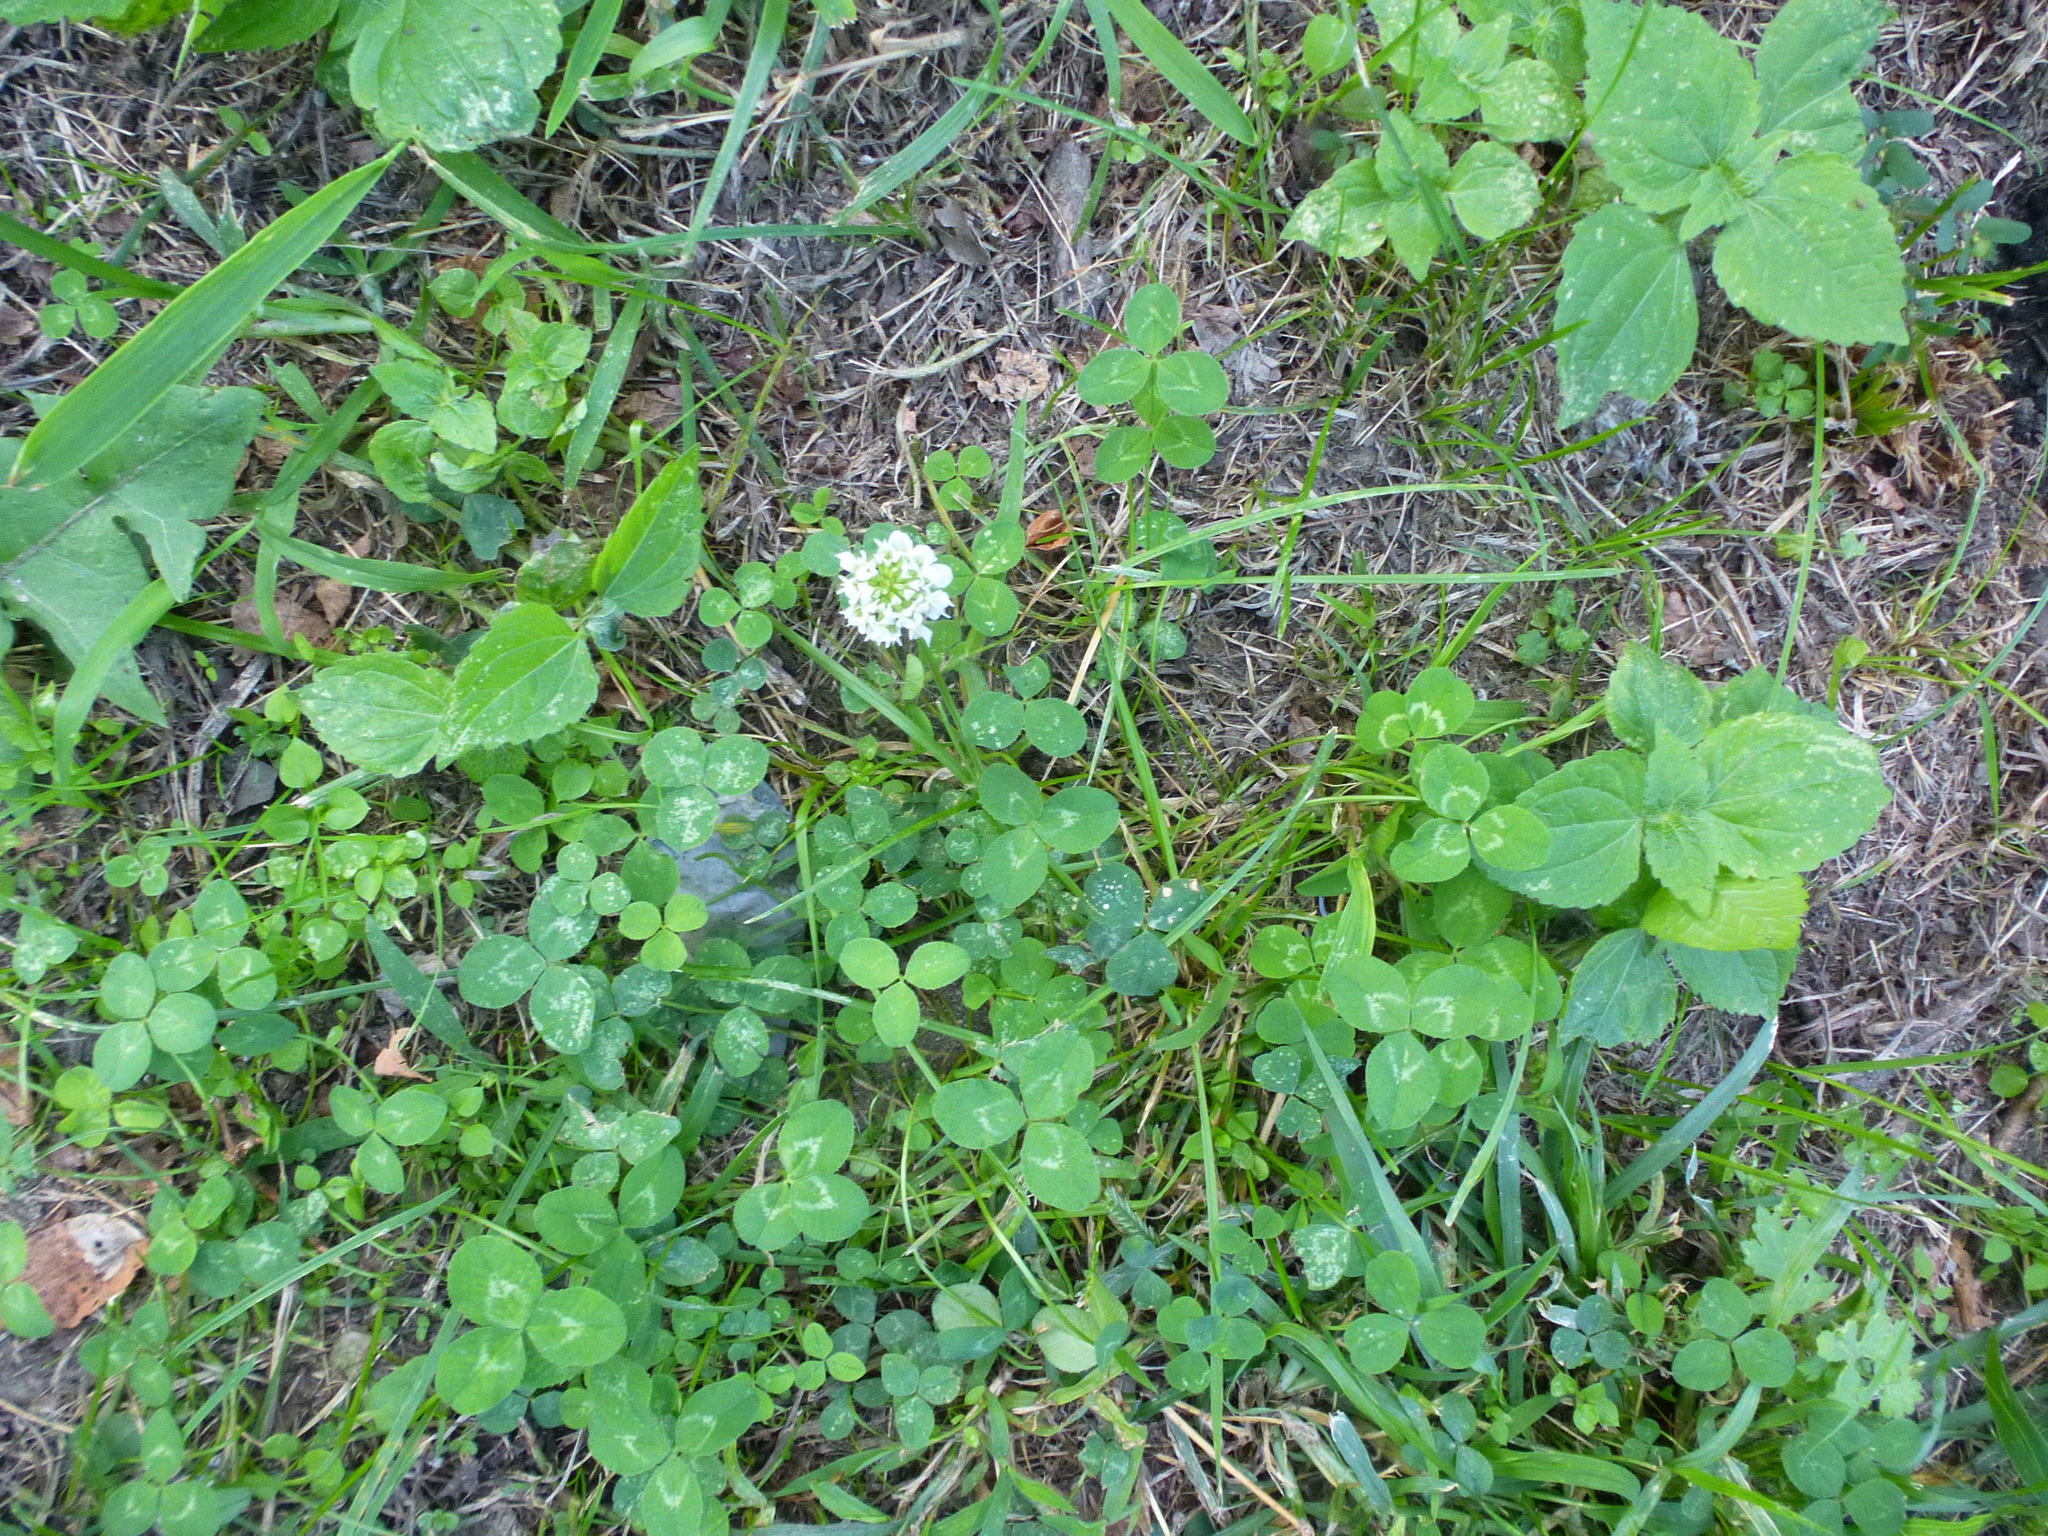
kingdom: Plantae
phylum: Tracheophyta
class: Magnoliopsida
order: Fabales
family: Fabaceae
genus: Trifolium
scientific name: Trifolium repens
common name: White clover
